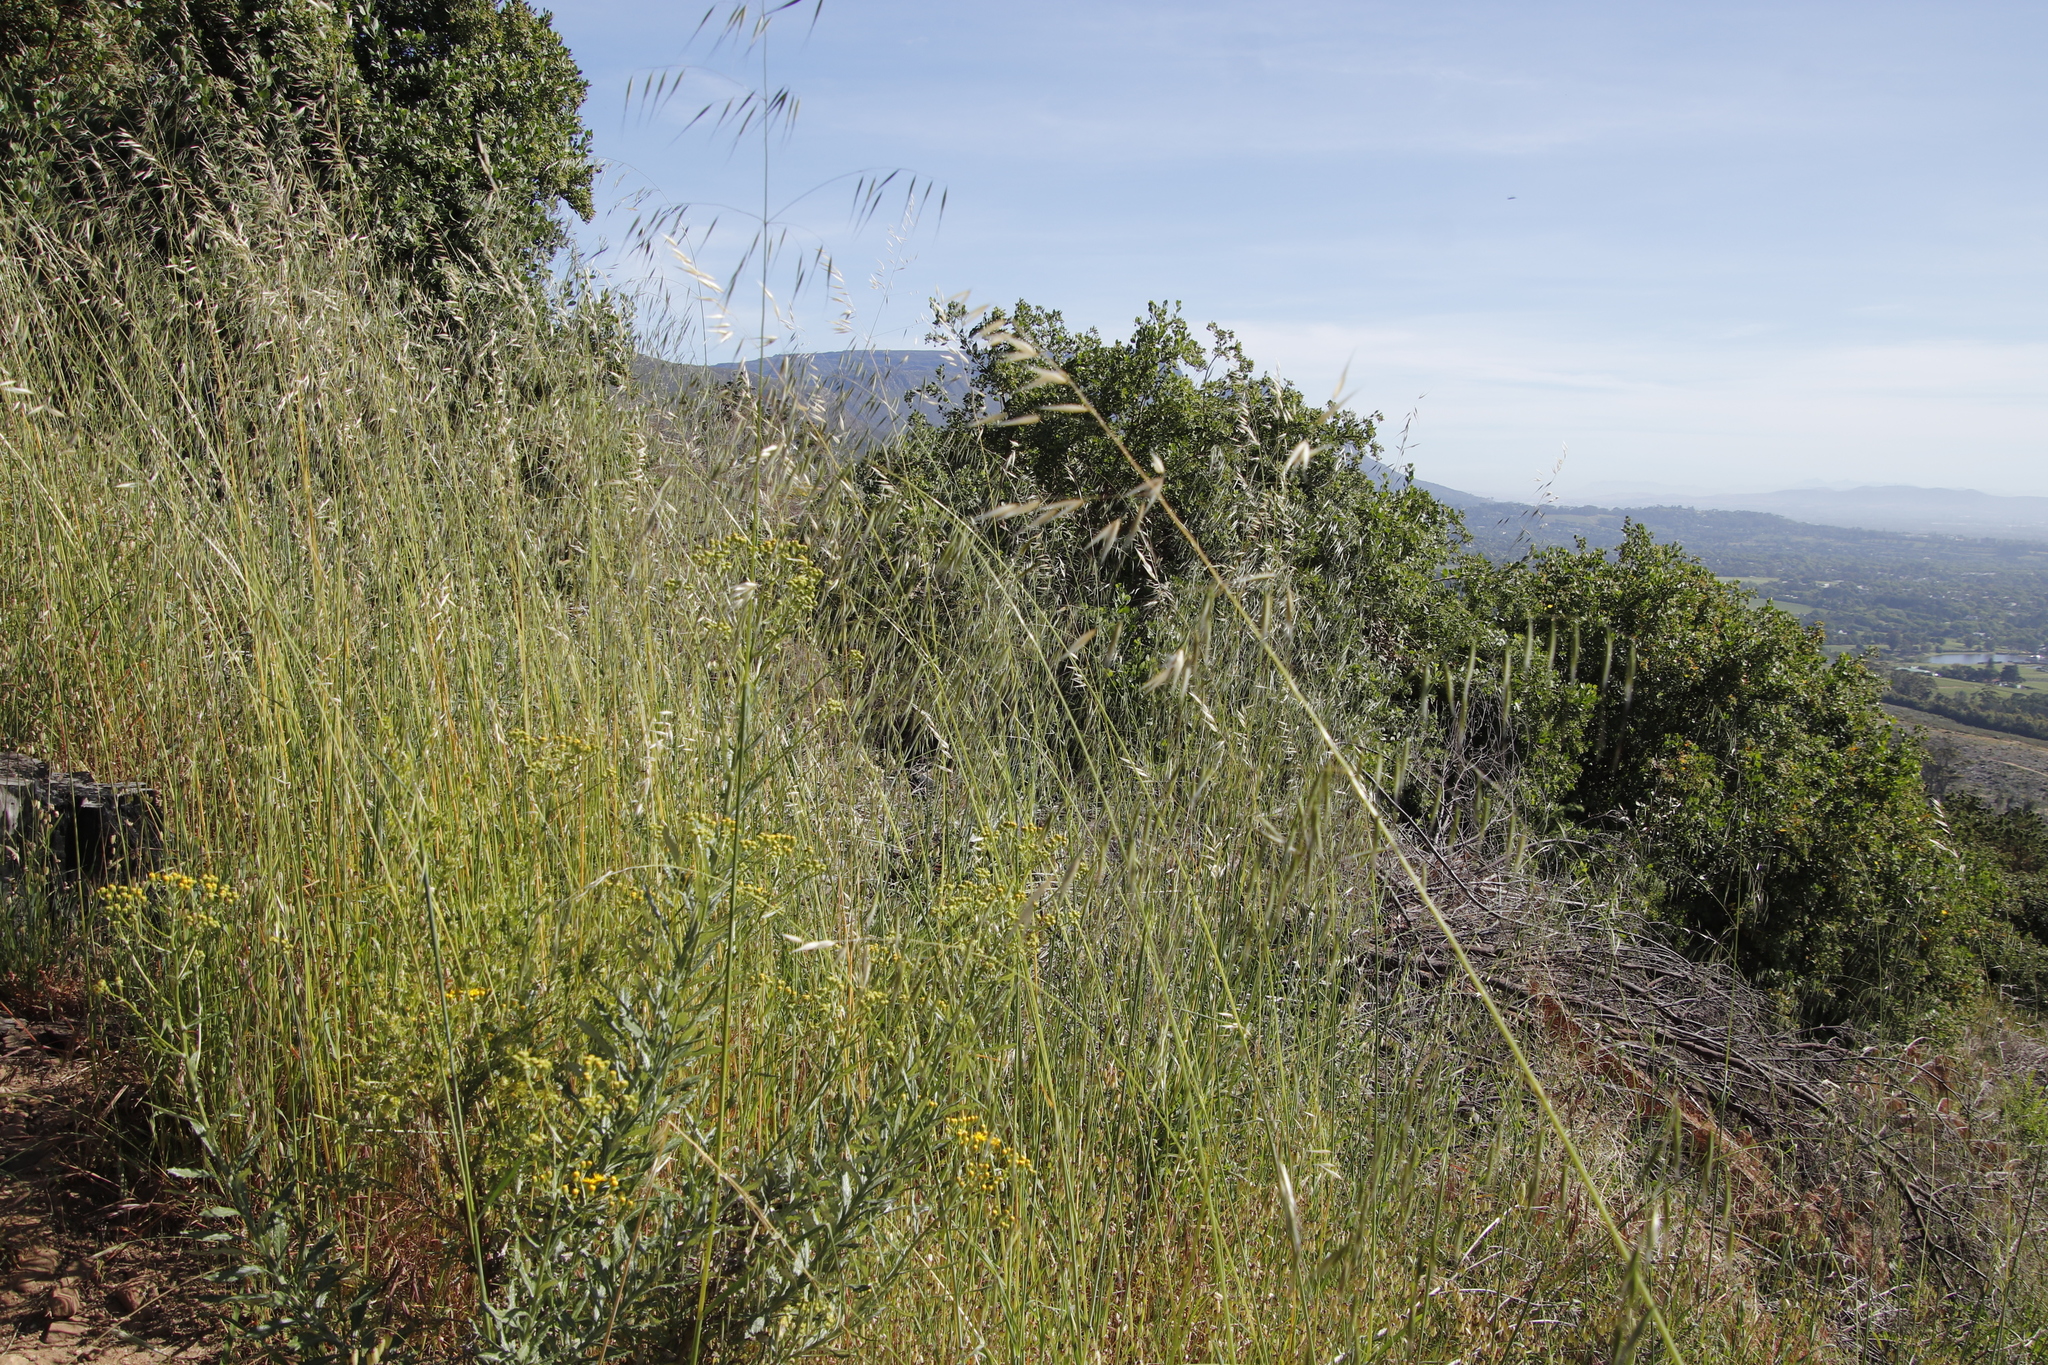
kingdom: Plantae
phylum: Tracheophyta
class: Liliopsida
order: Poales
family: Poaceae
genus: Avena
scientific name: Avena fatua
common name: Wild oat
